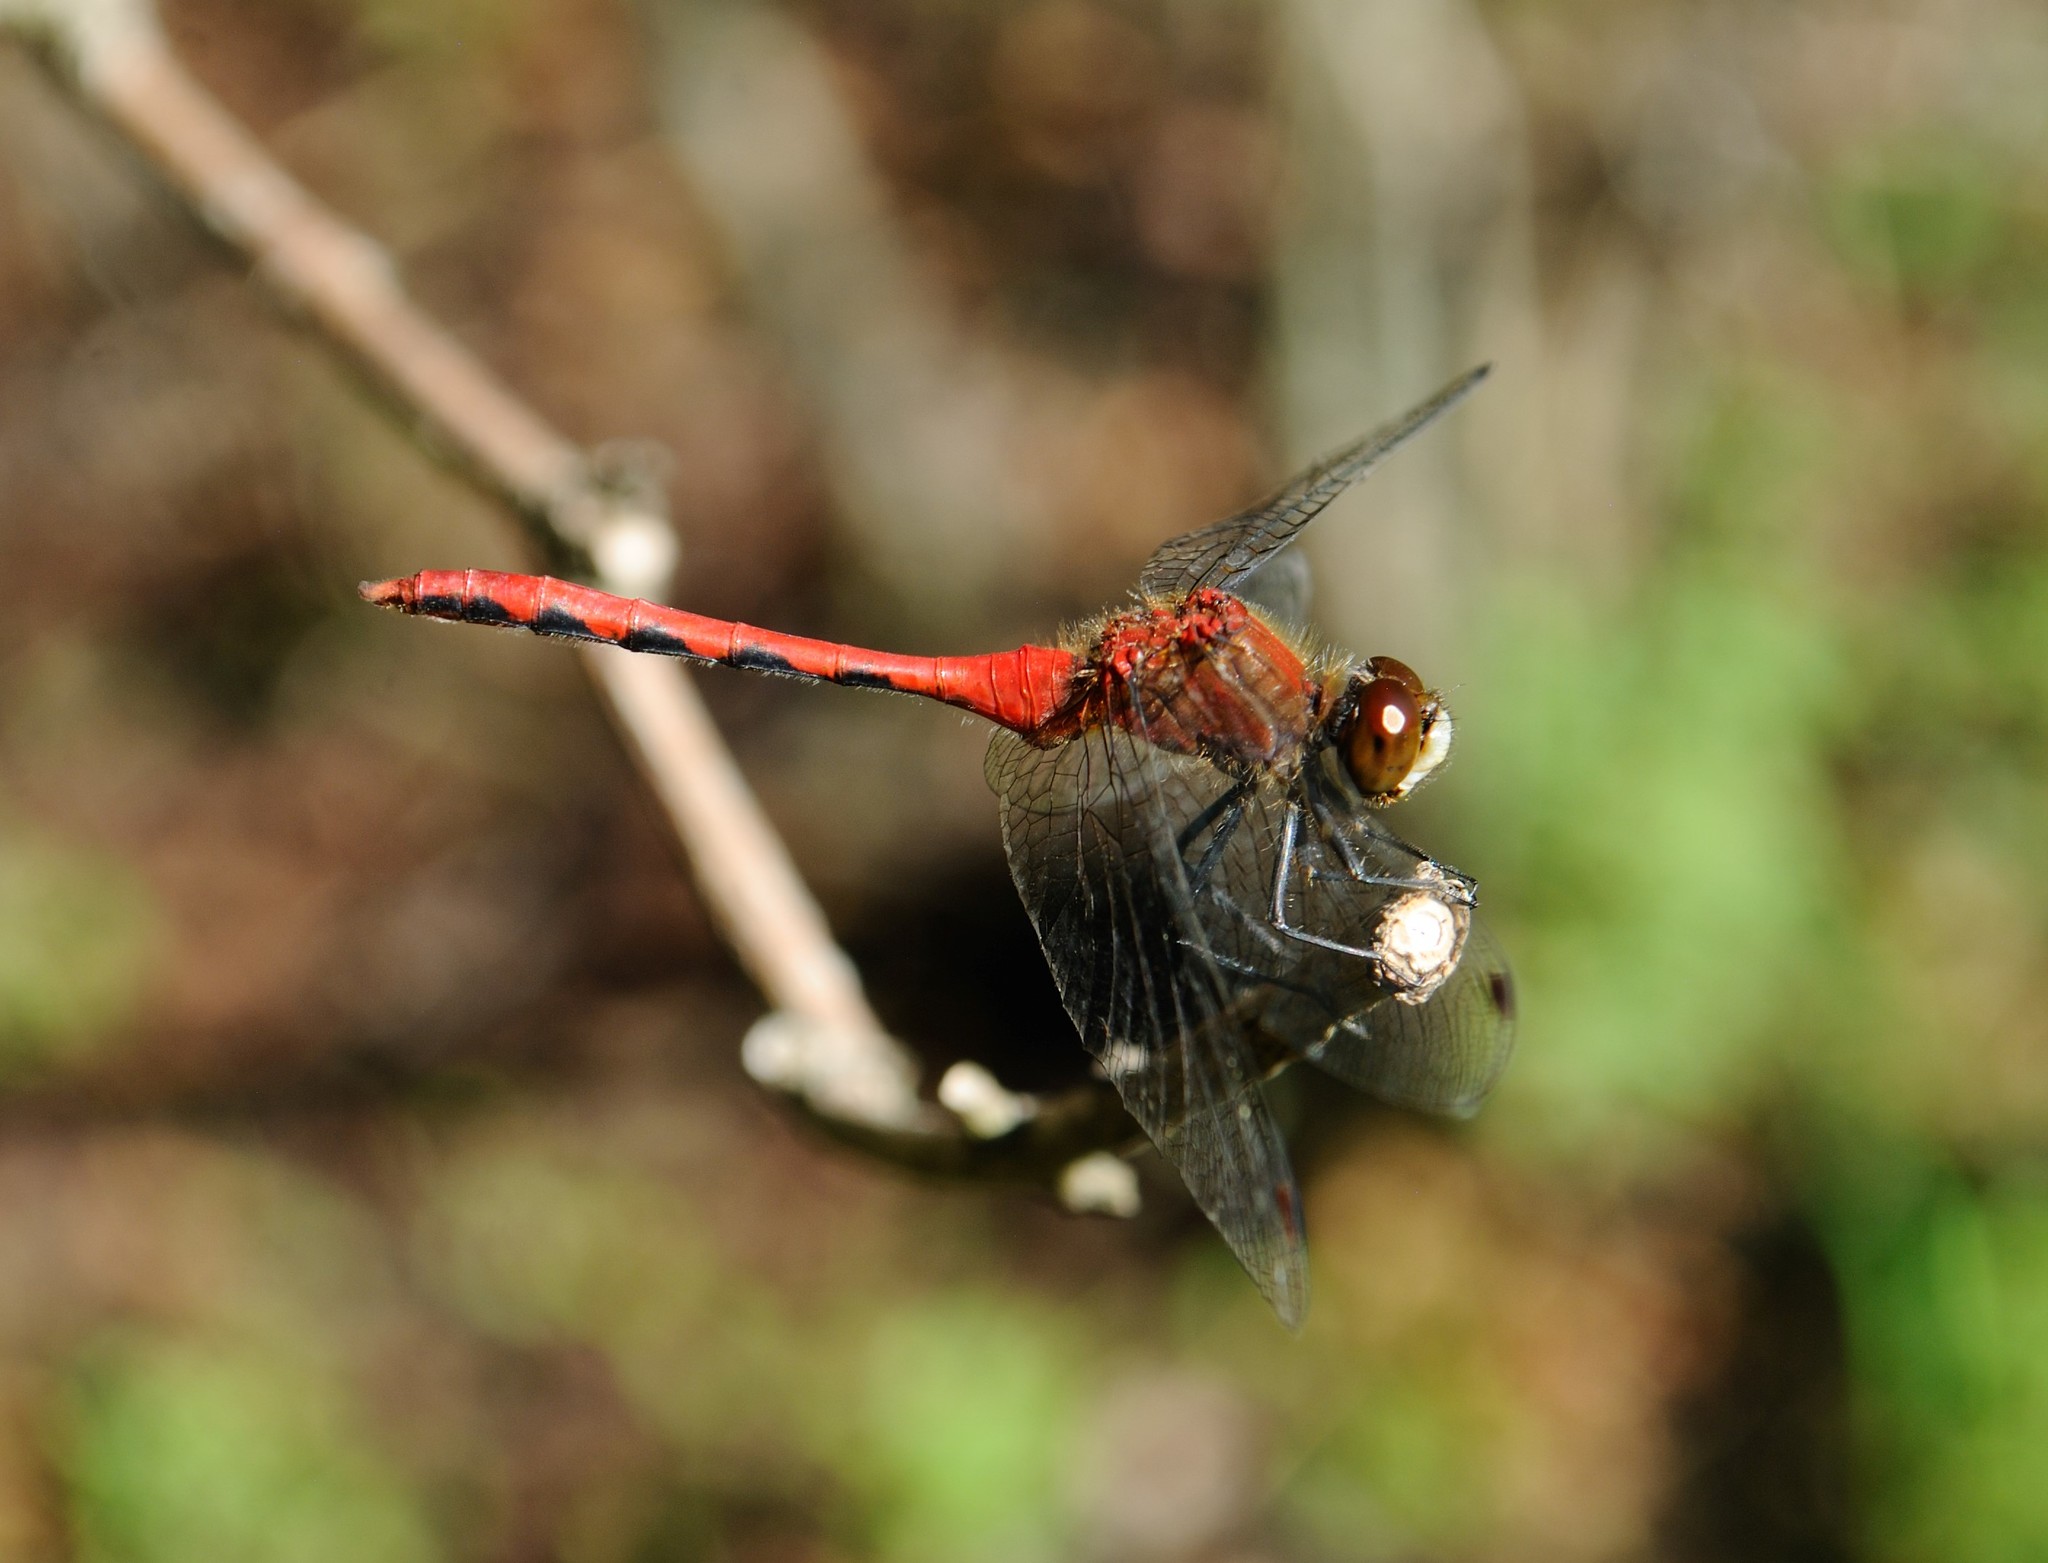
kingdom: Animalia
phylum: Arthropoda
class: Insecta
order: Odonata
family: Libellulidae
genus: Sympetrum
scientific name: Sympetrum obtrusum
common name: White-faced meadowhawk
